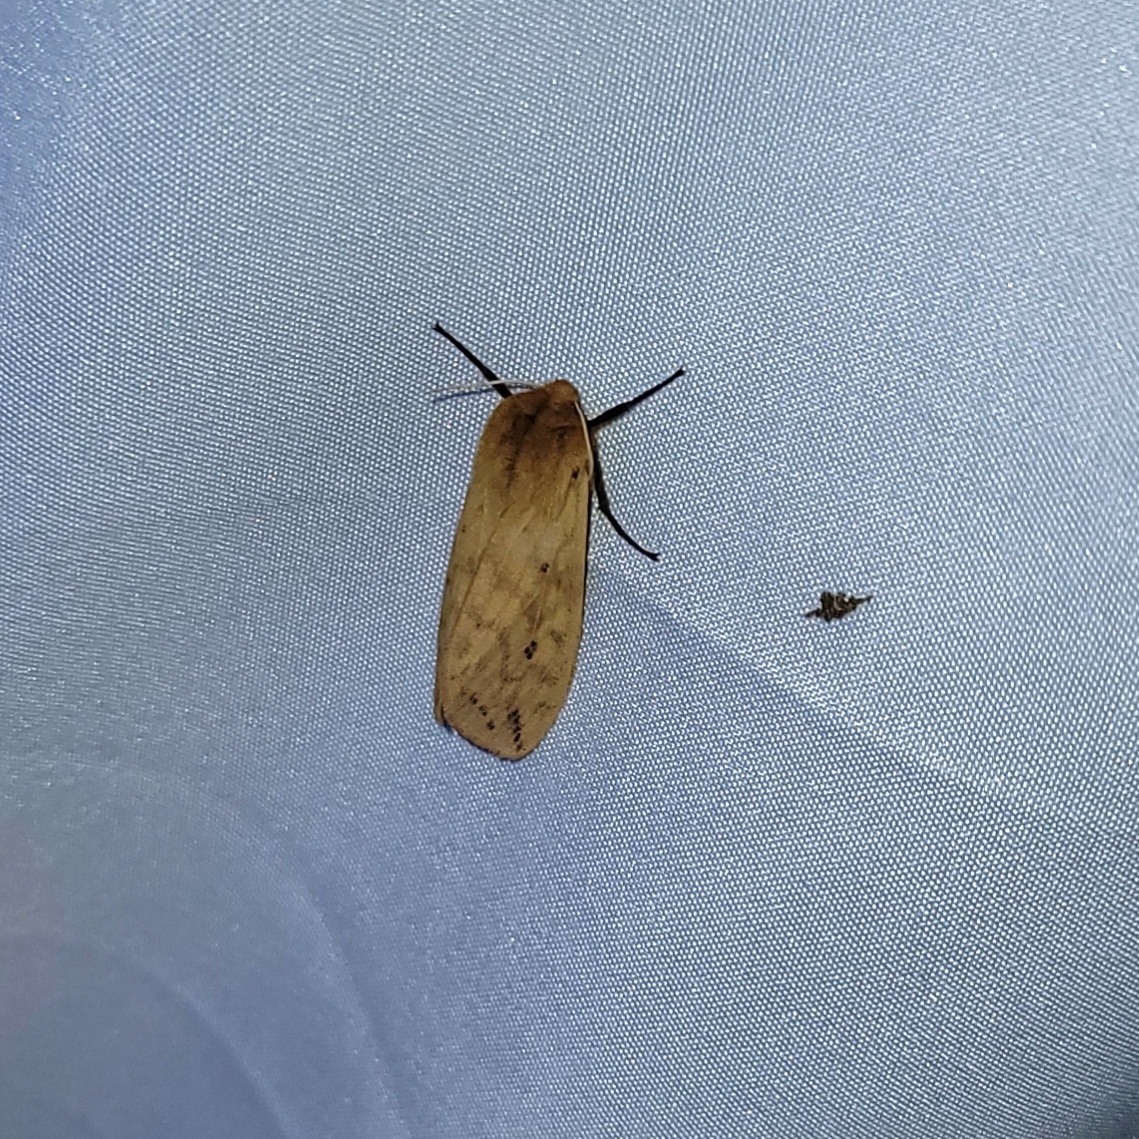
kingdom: Animalia
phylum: Arthropoda
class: Insecta
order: Lepidoptera
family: Erebidae
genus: Pyrrharctia
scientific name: Pyrrharctia isabella
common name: Isabella tiger moth
